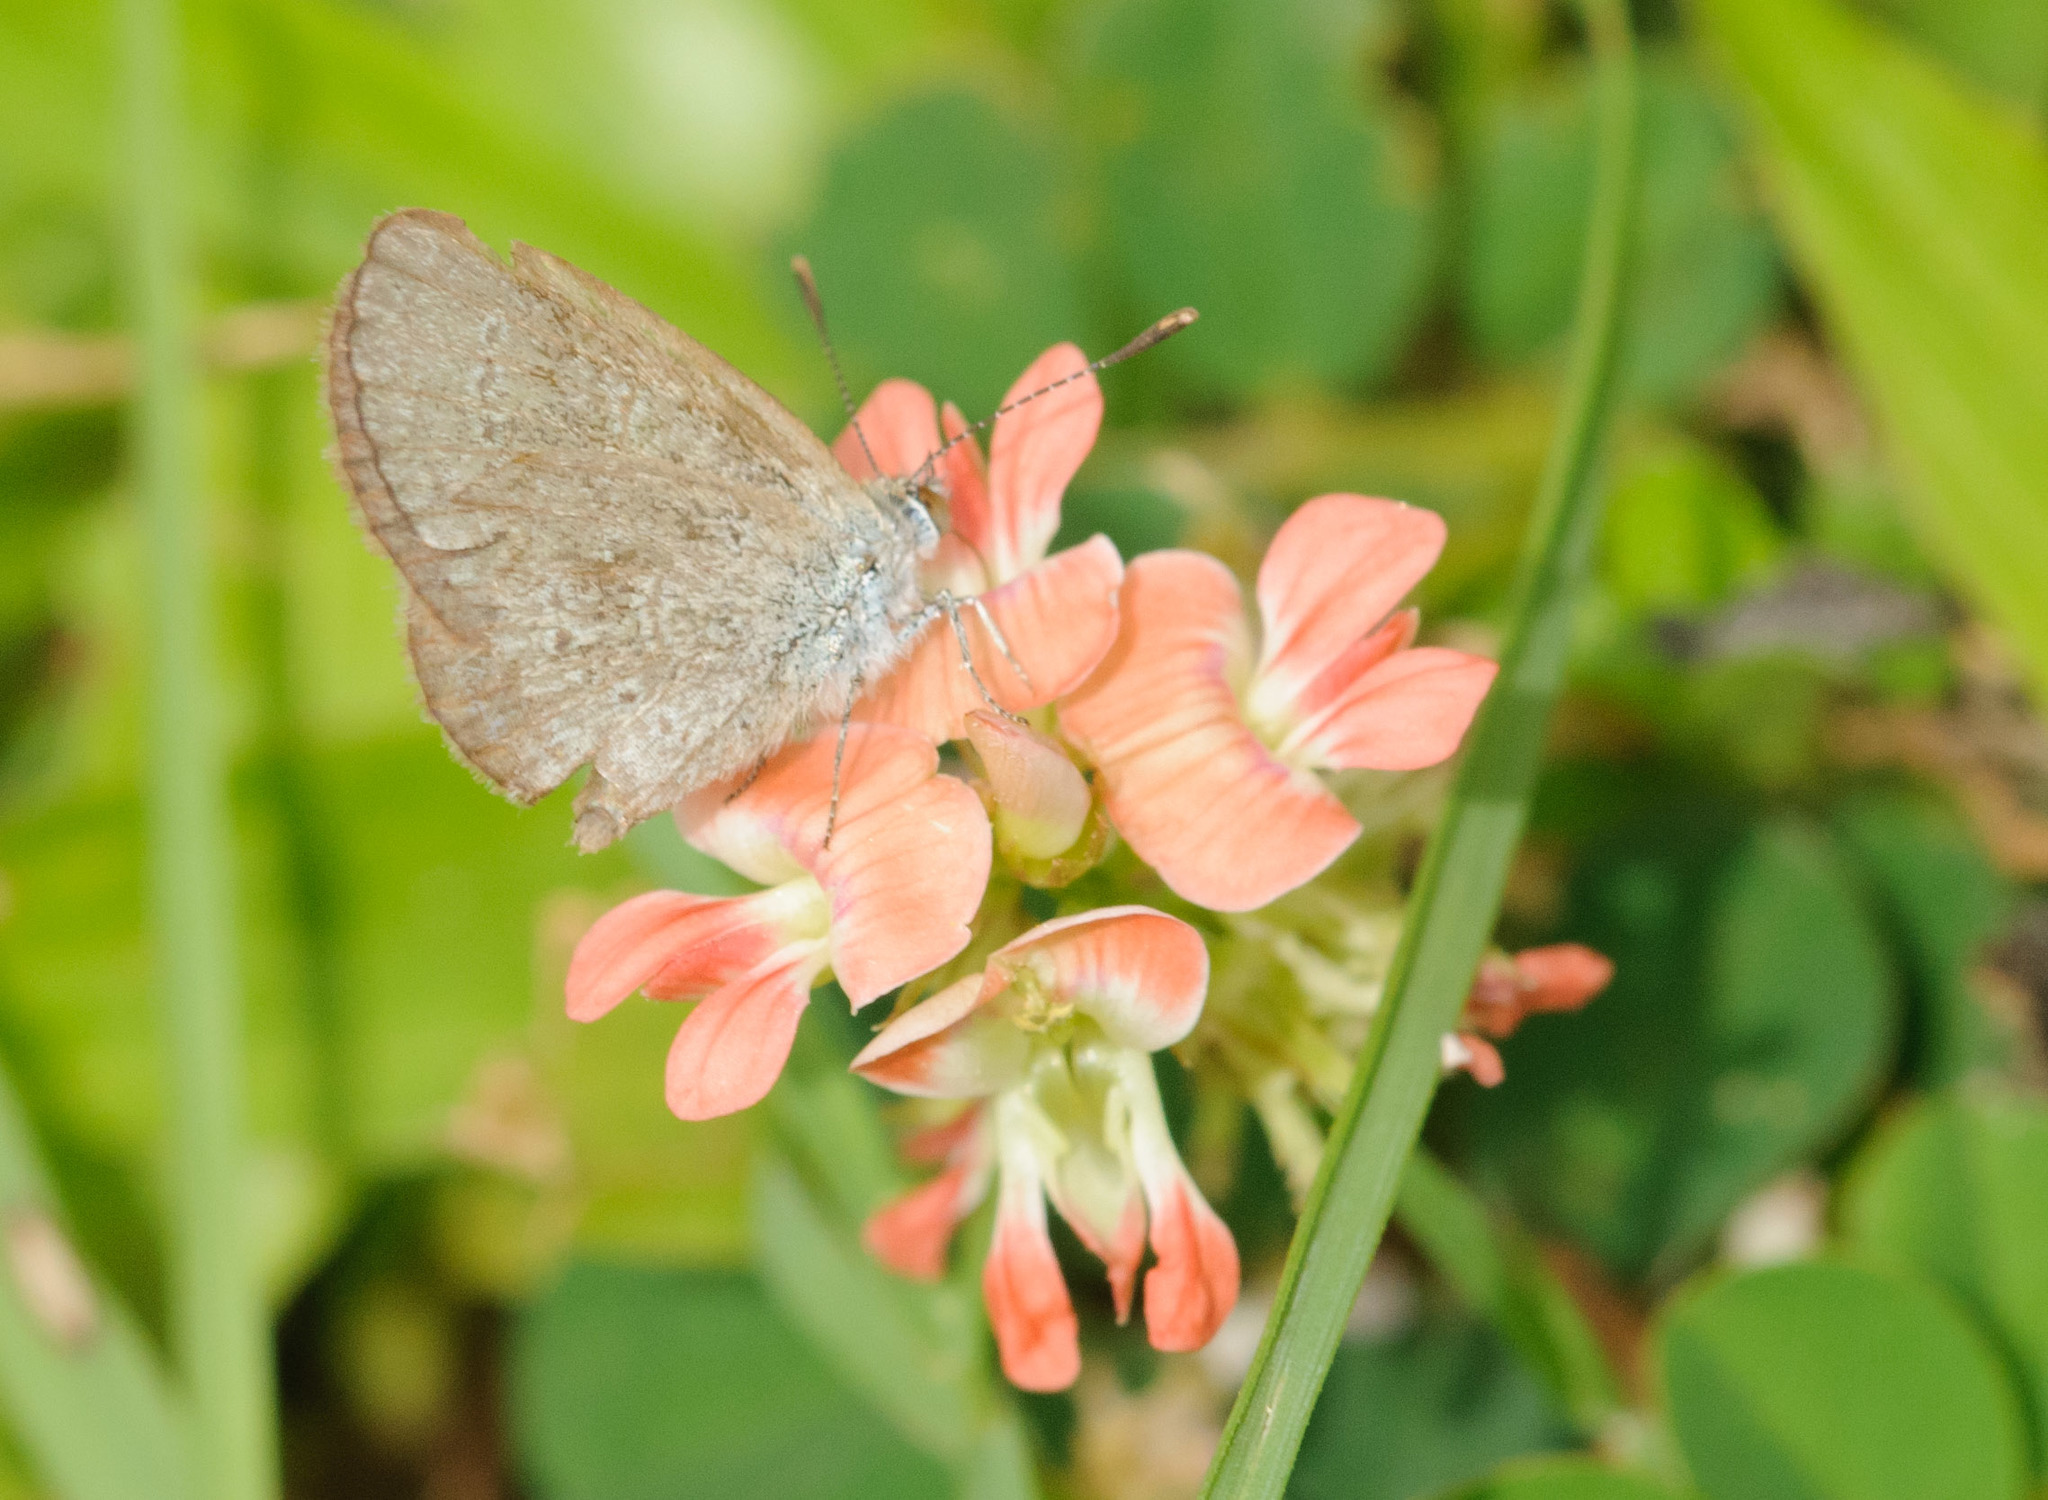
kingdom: Animalia
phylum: Arthropoda
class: Insecta
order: Lepidoptera
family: Lycaenidae
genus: Zizina
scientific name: Zizina otis
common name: Lesser grass blue
